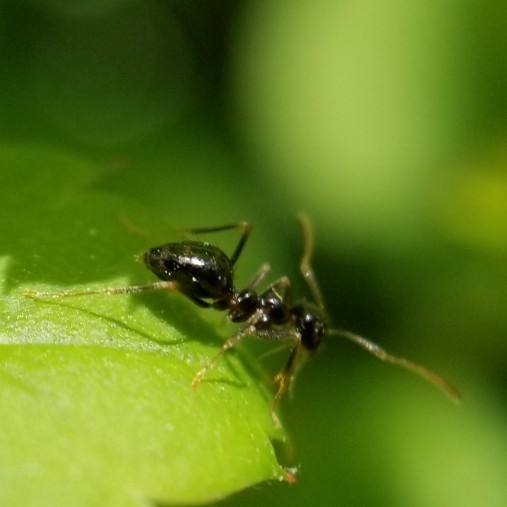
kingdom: Animalia
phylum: Arthropoda
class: Insecta
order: Hymenoptera
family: Formicidae
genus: Prenolepis
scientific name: Prenolepis imparis
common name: Small honey ant
